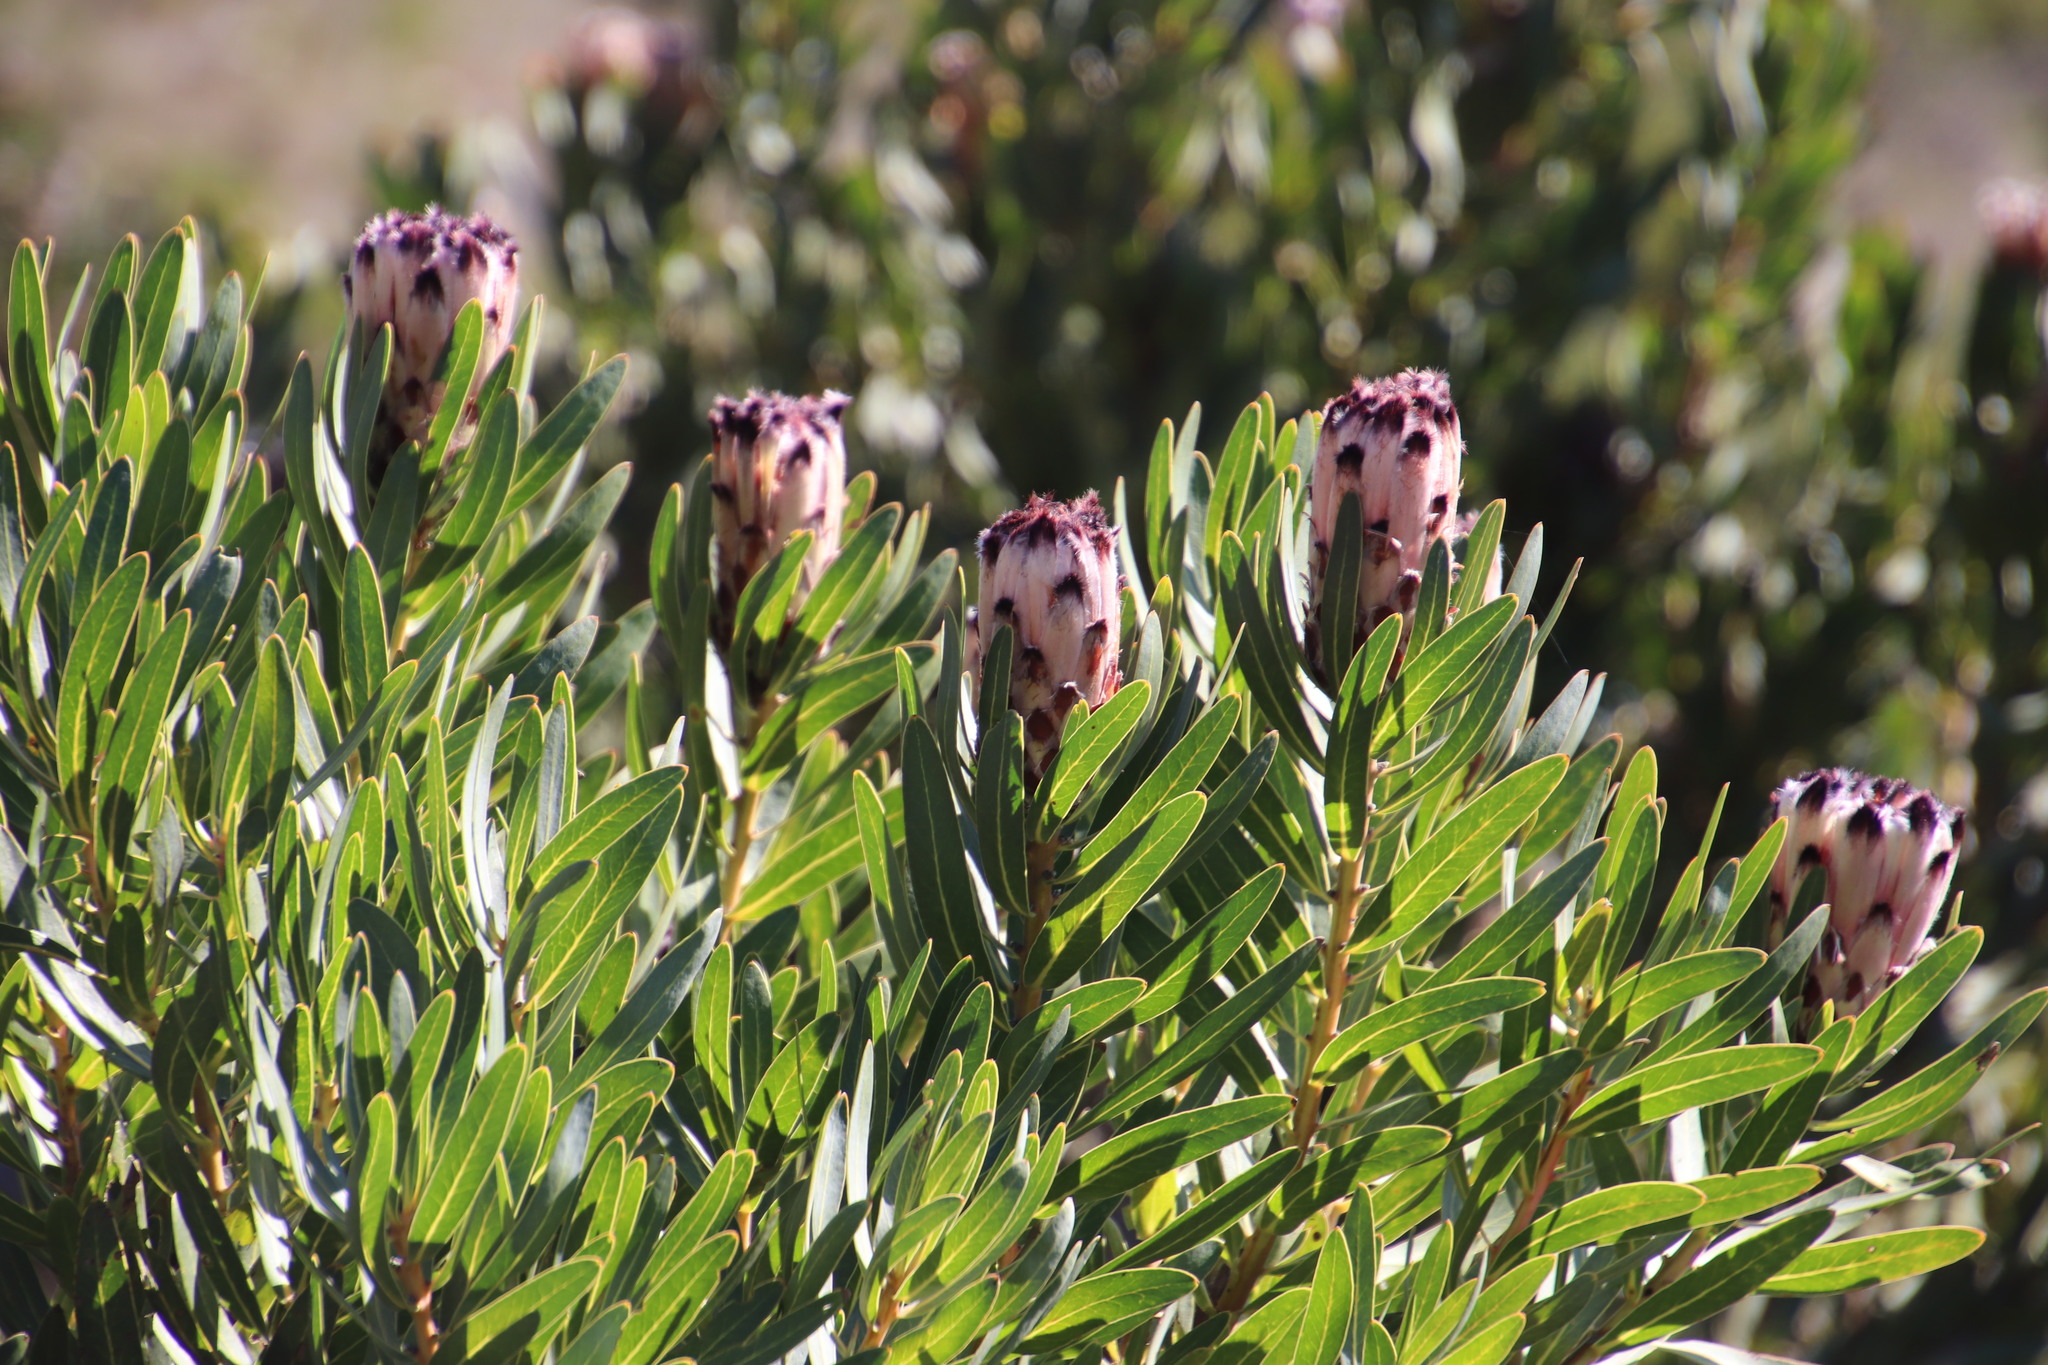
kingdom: Plantae
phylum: Tracheophyta
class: Magnoliopsida
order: Proteales
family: Proteaceae
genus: Protea
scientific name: Protea laurifolia
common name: Grey-leaf sugarbsh
